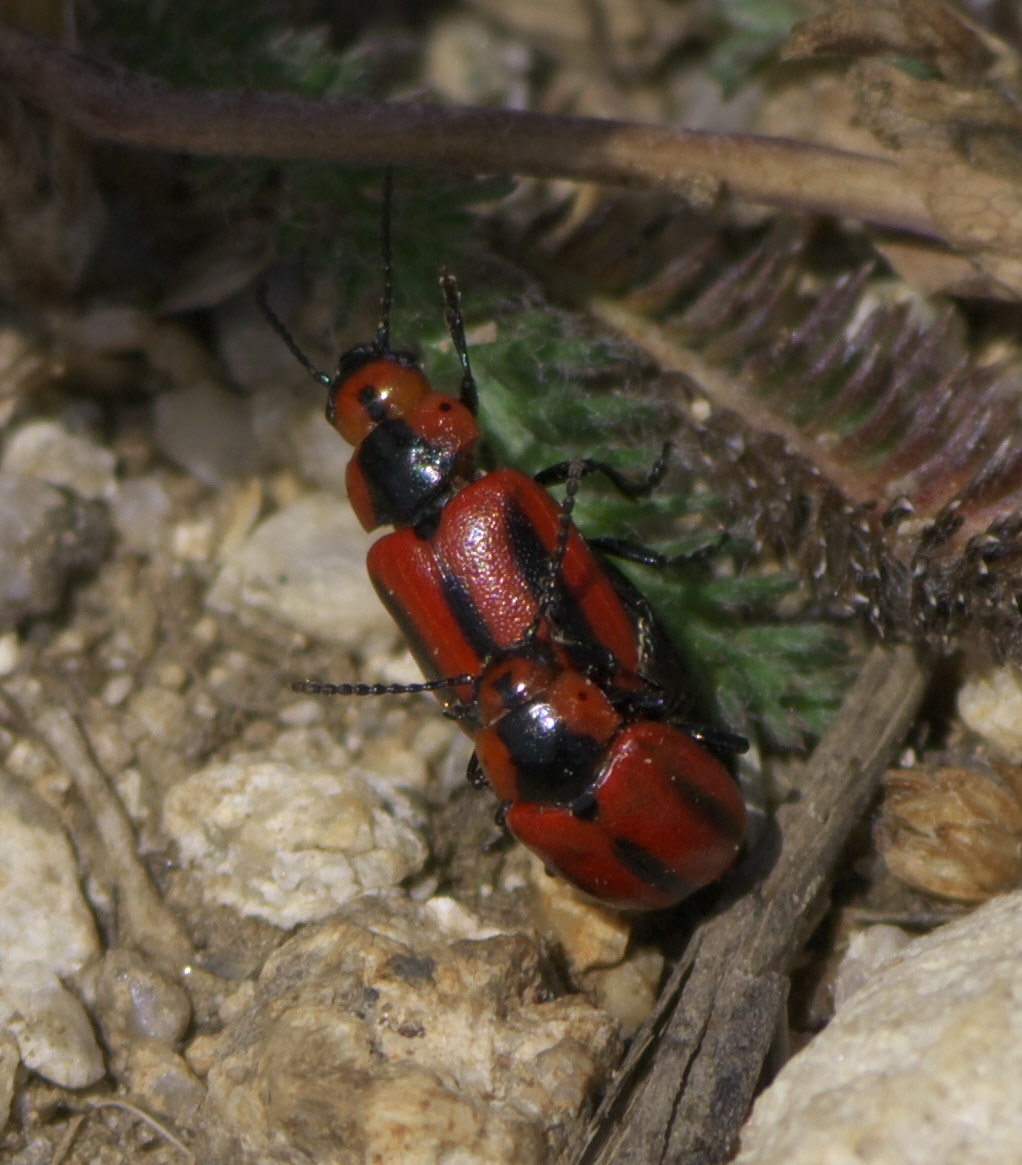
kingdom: Animalia
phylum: Arthropoda
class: Insecta
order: Coleoptera
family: Chrysomelidae
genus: Entomoscelis
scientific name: Entomoscelis americana
